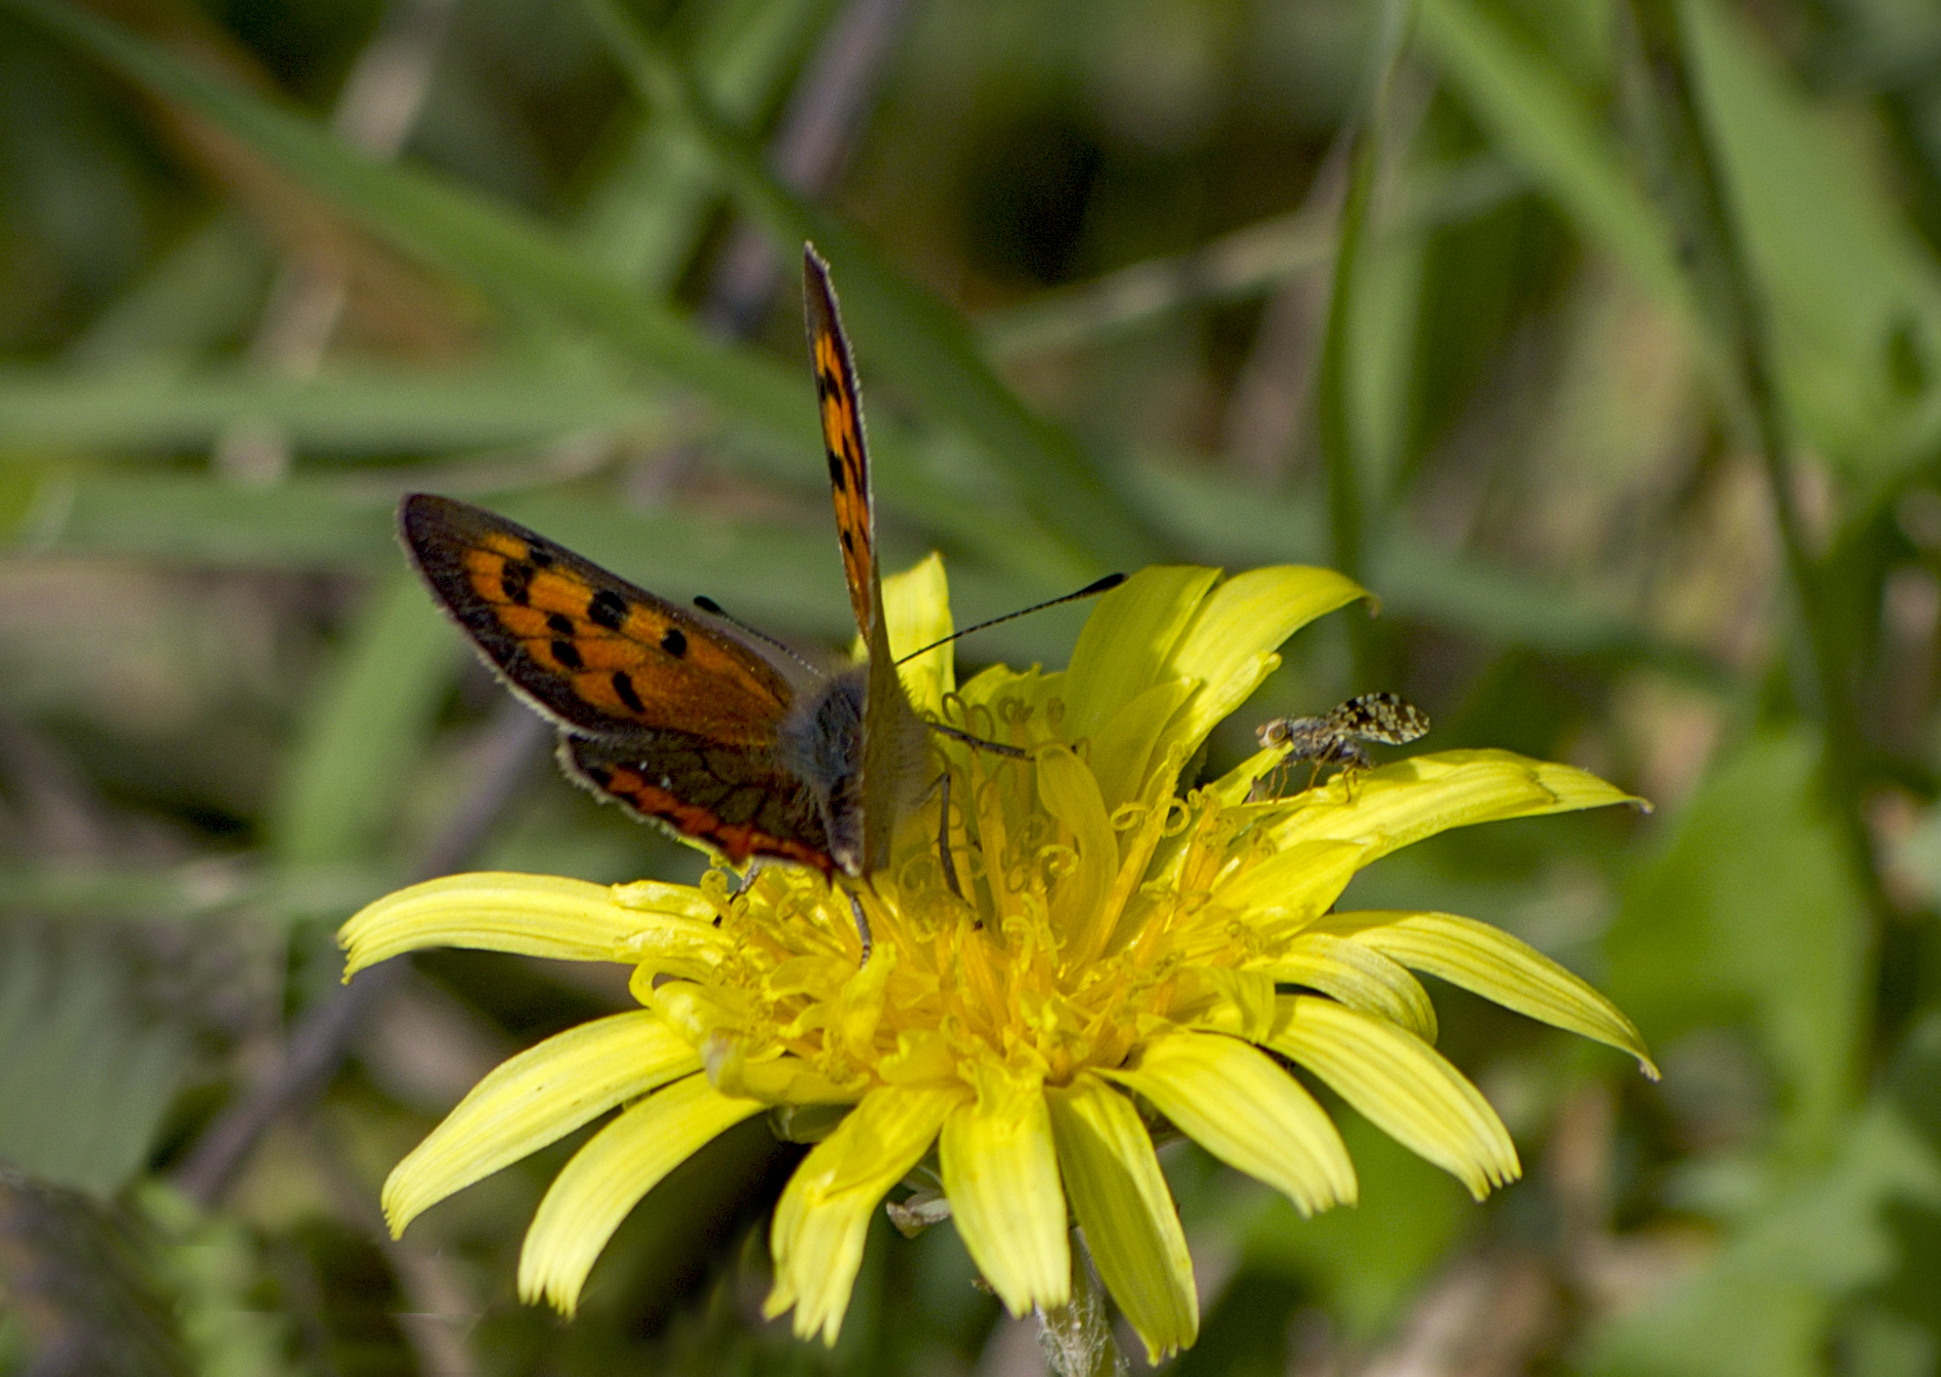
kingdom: Animalia
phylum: Arthropoda
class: Insecta
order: Lepidoptera
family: Lycaenidae
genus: Lycaena
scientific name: Lycaena phlaeas
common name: Small copper
